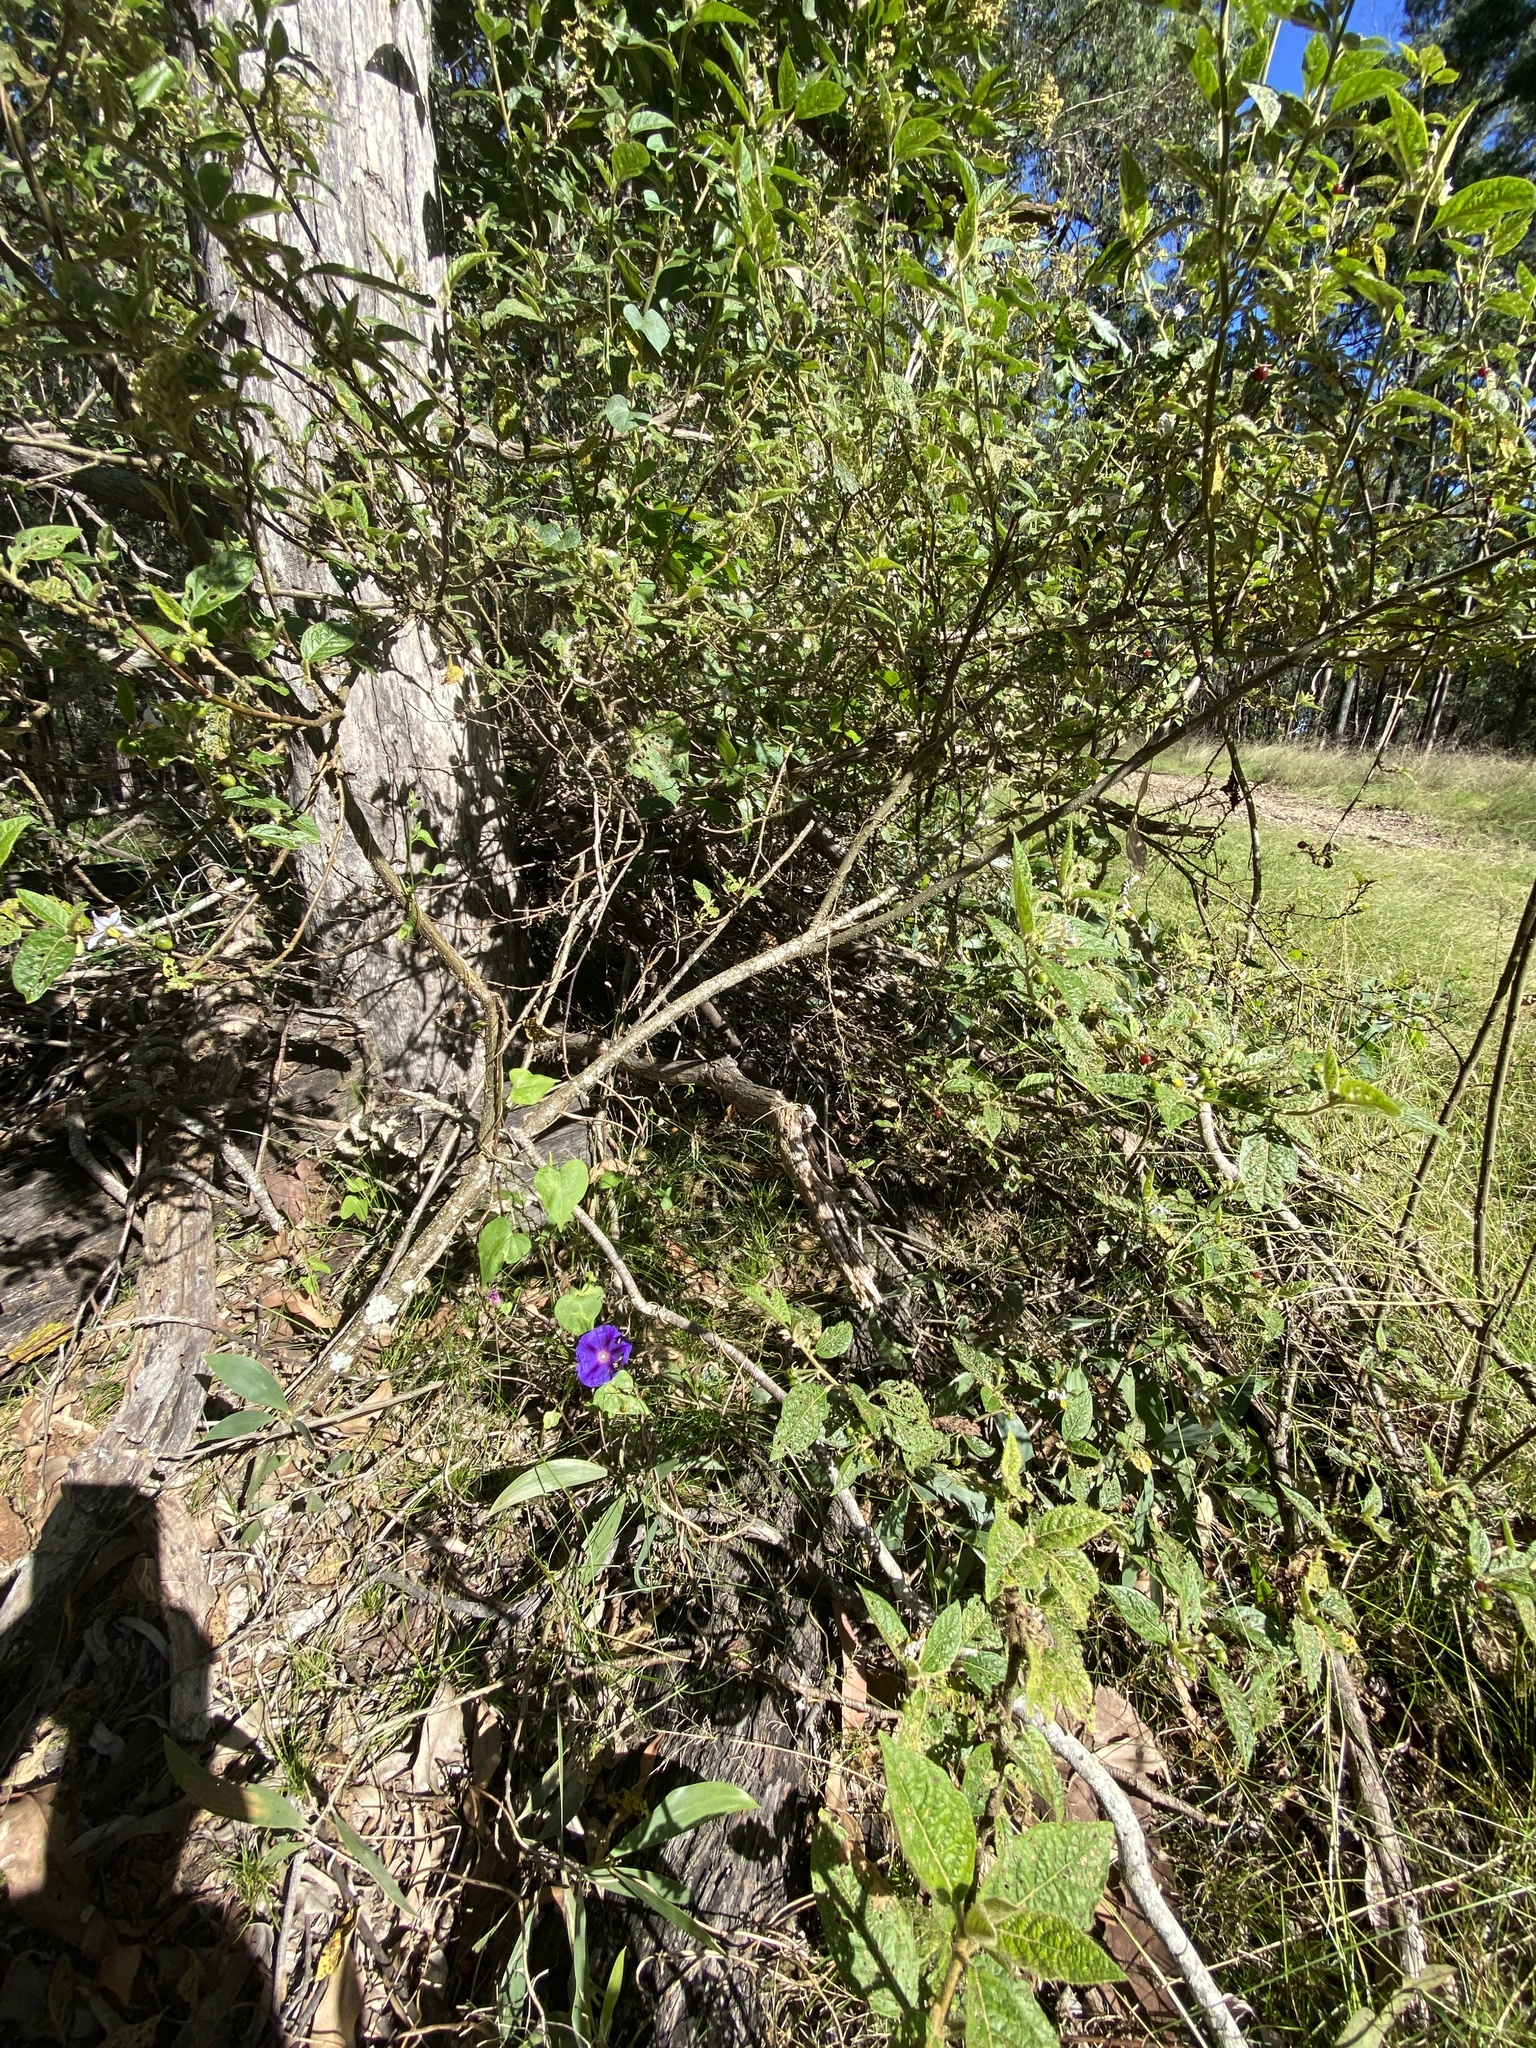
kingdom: Plantae
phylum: Tracheophyta
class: Magnoliopsida
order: Solanales
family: Convolvulaceae
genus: Ipomoea
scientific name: Ipomoea purpurea
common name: Common morning-glory
